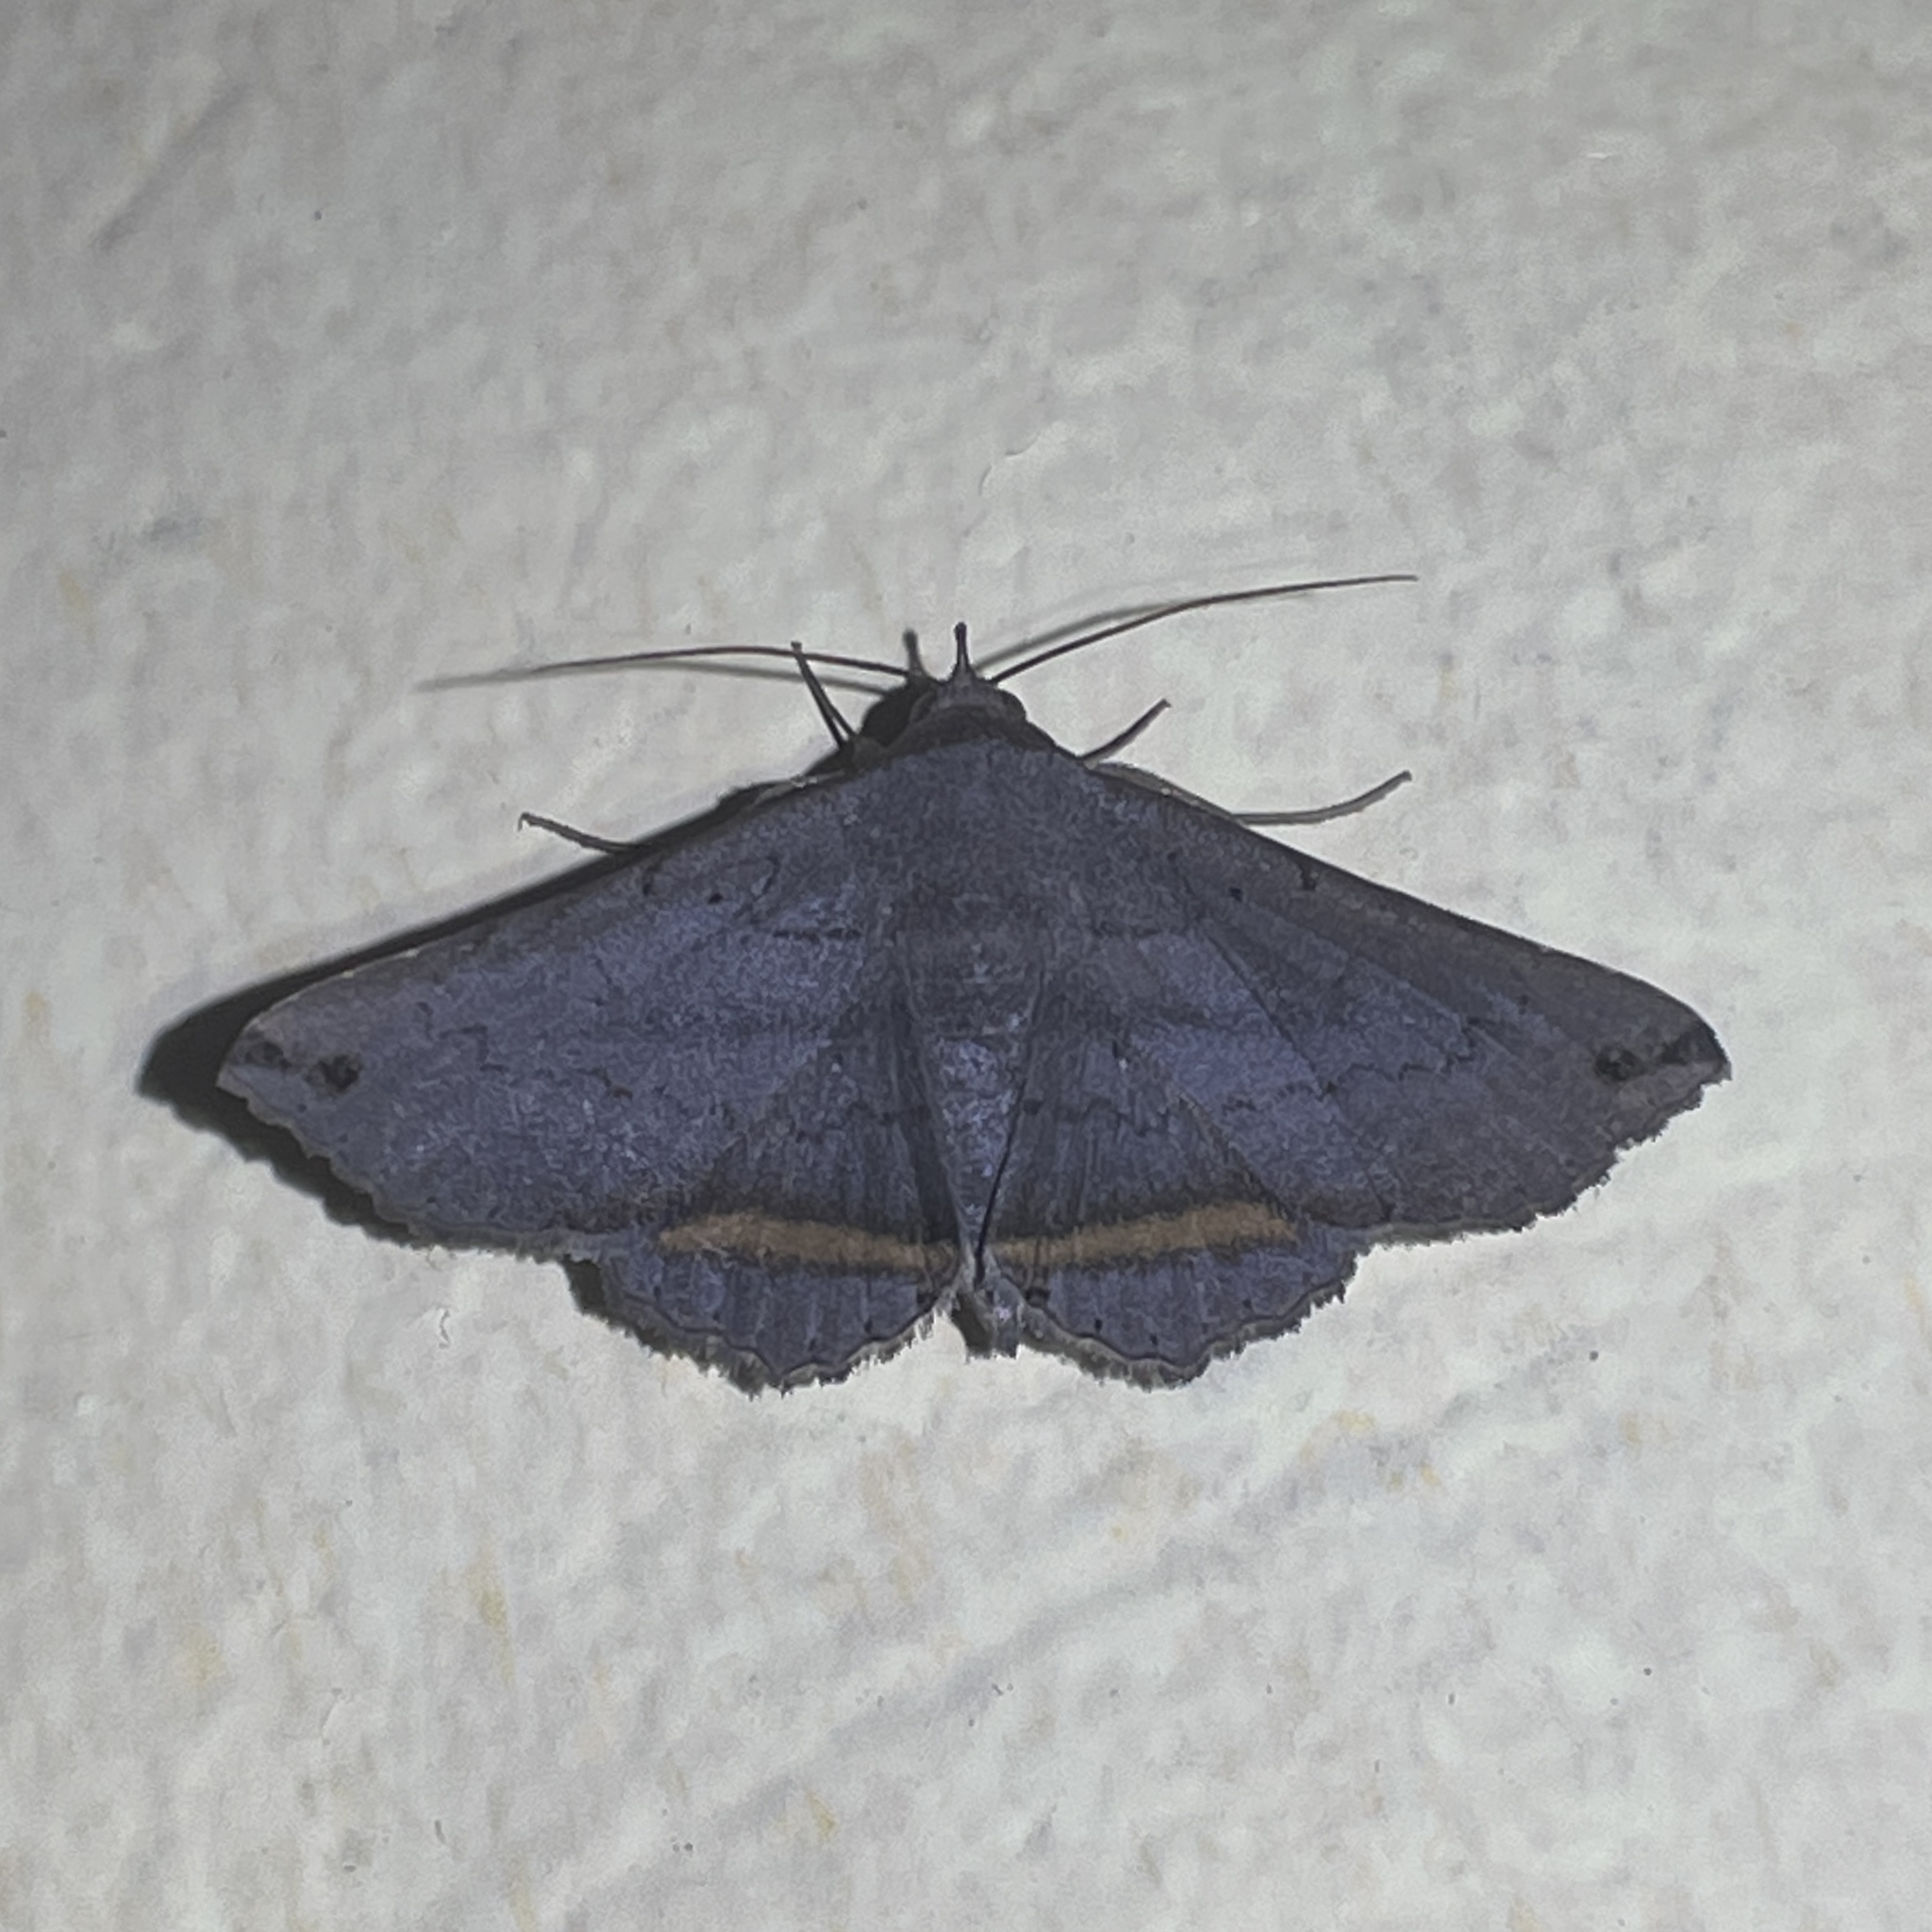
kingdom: Animalia
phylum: Arthropoda
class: Insecta
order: Lepidoptera
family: Erebidae
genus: Lesmone
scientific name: Lesmone formularis
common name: Lesmone moth
